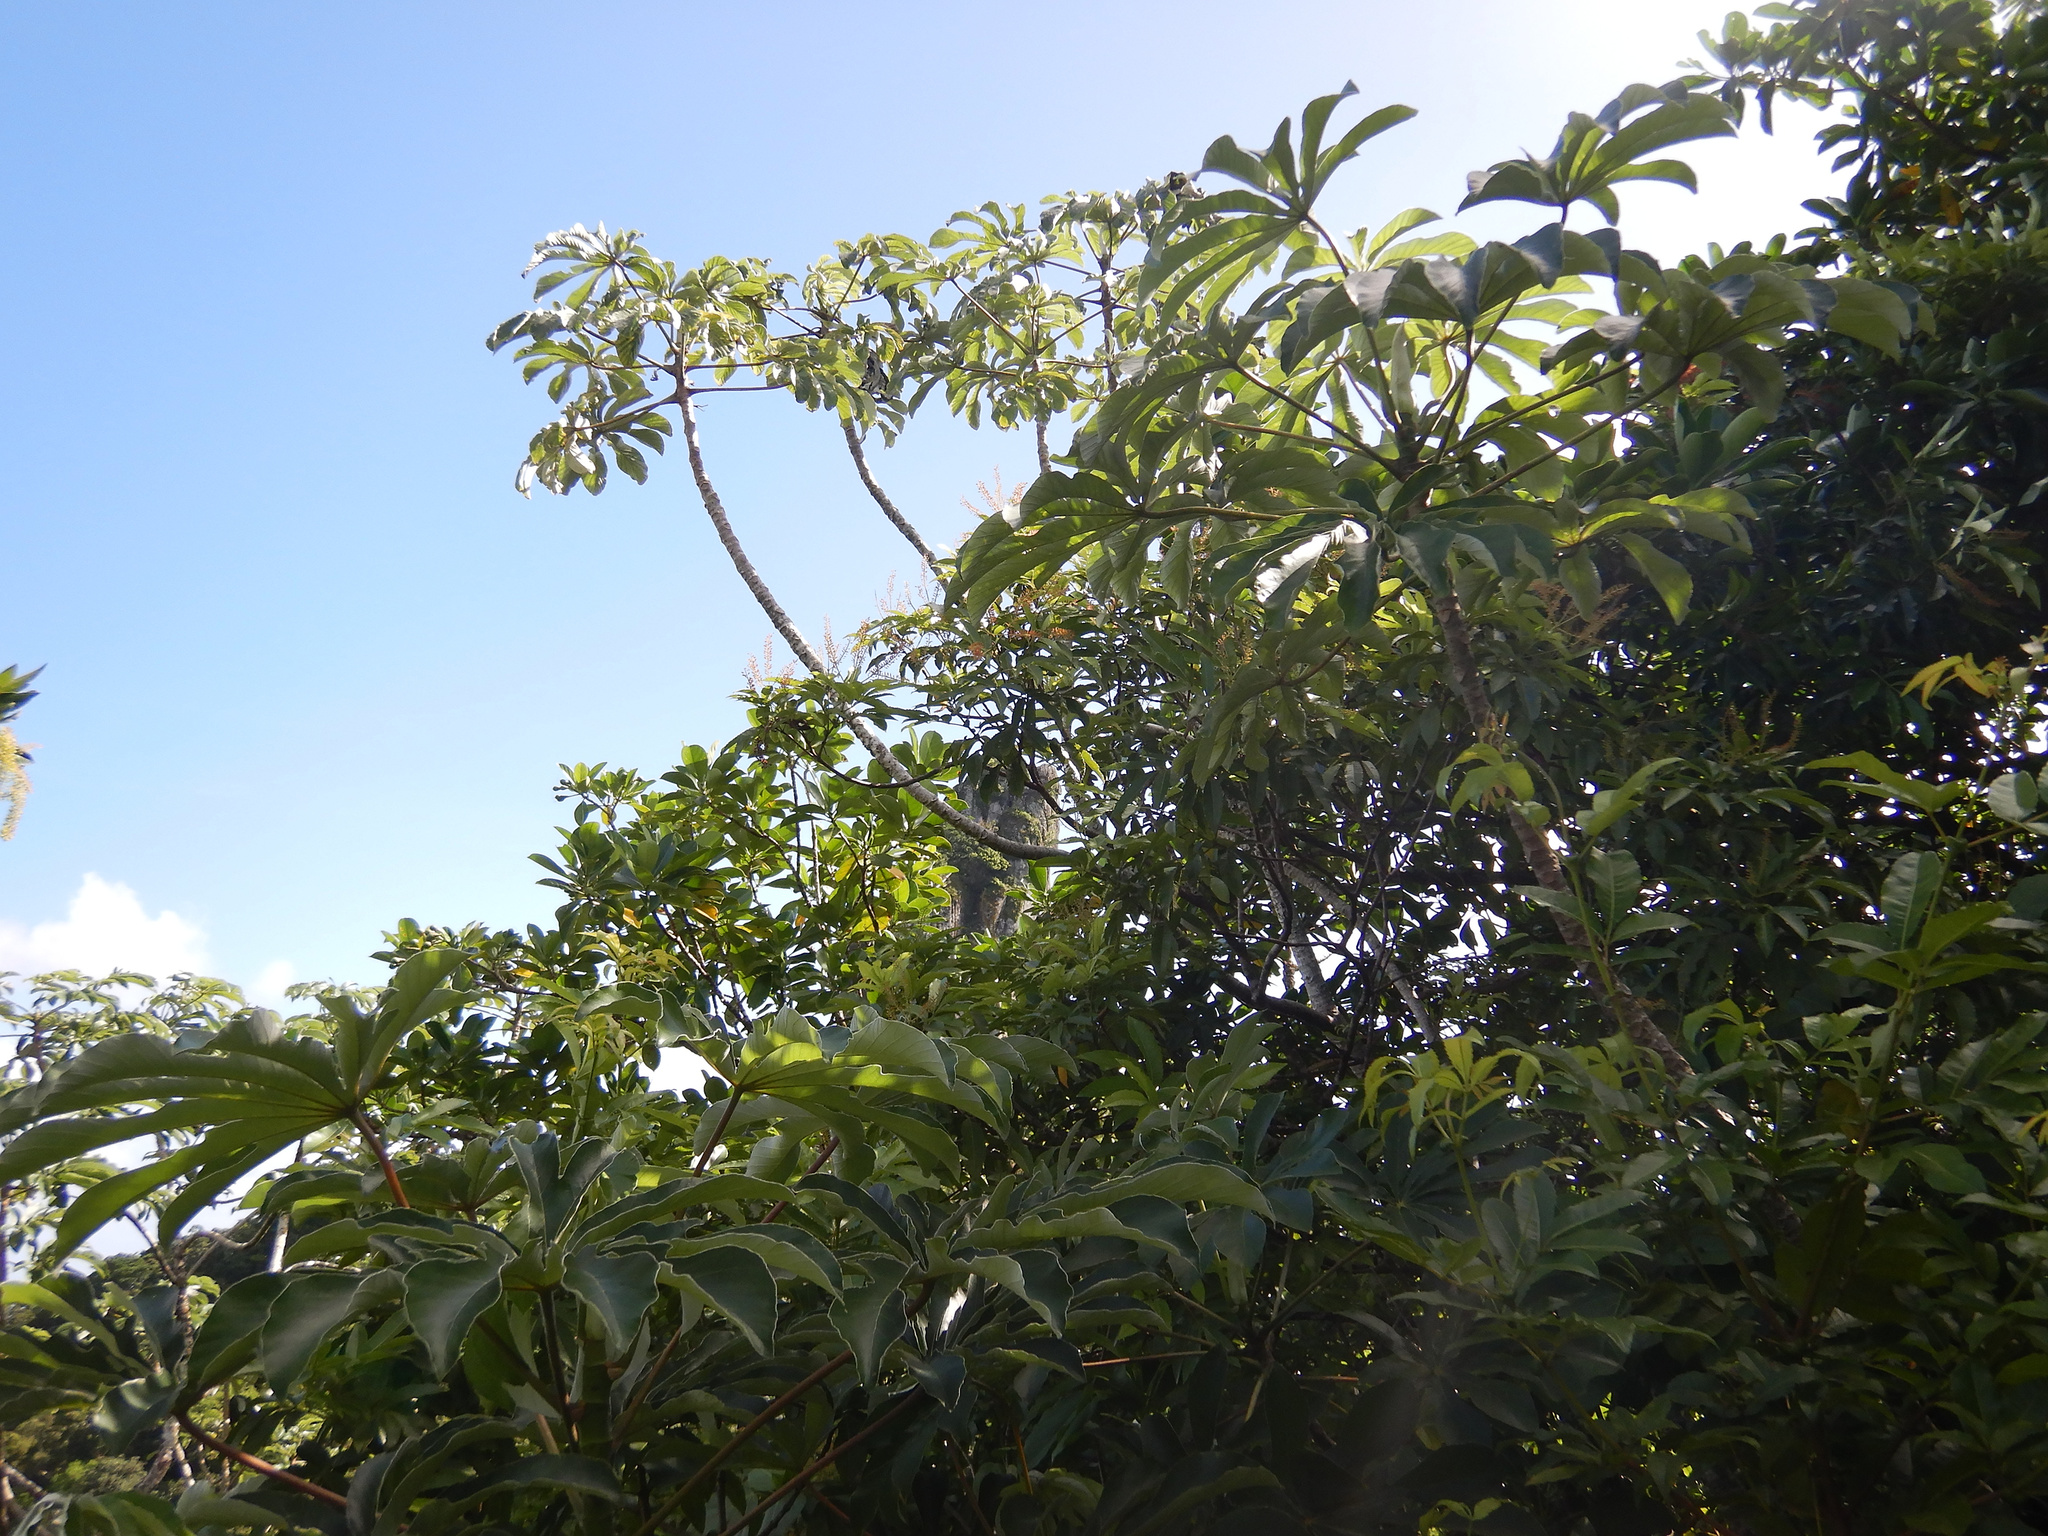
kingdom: Plantae
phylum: Tracheophyta
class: Magnoliopsida
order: Rosales
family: Urticaceae
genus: Cecropia
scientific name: Cecropia pachystachya
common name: Ambay pumpwood
